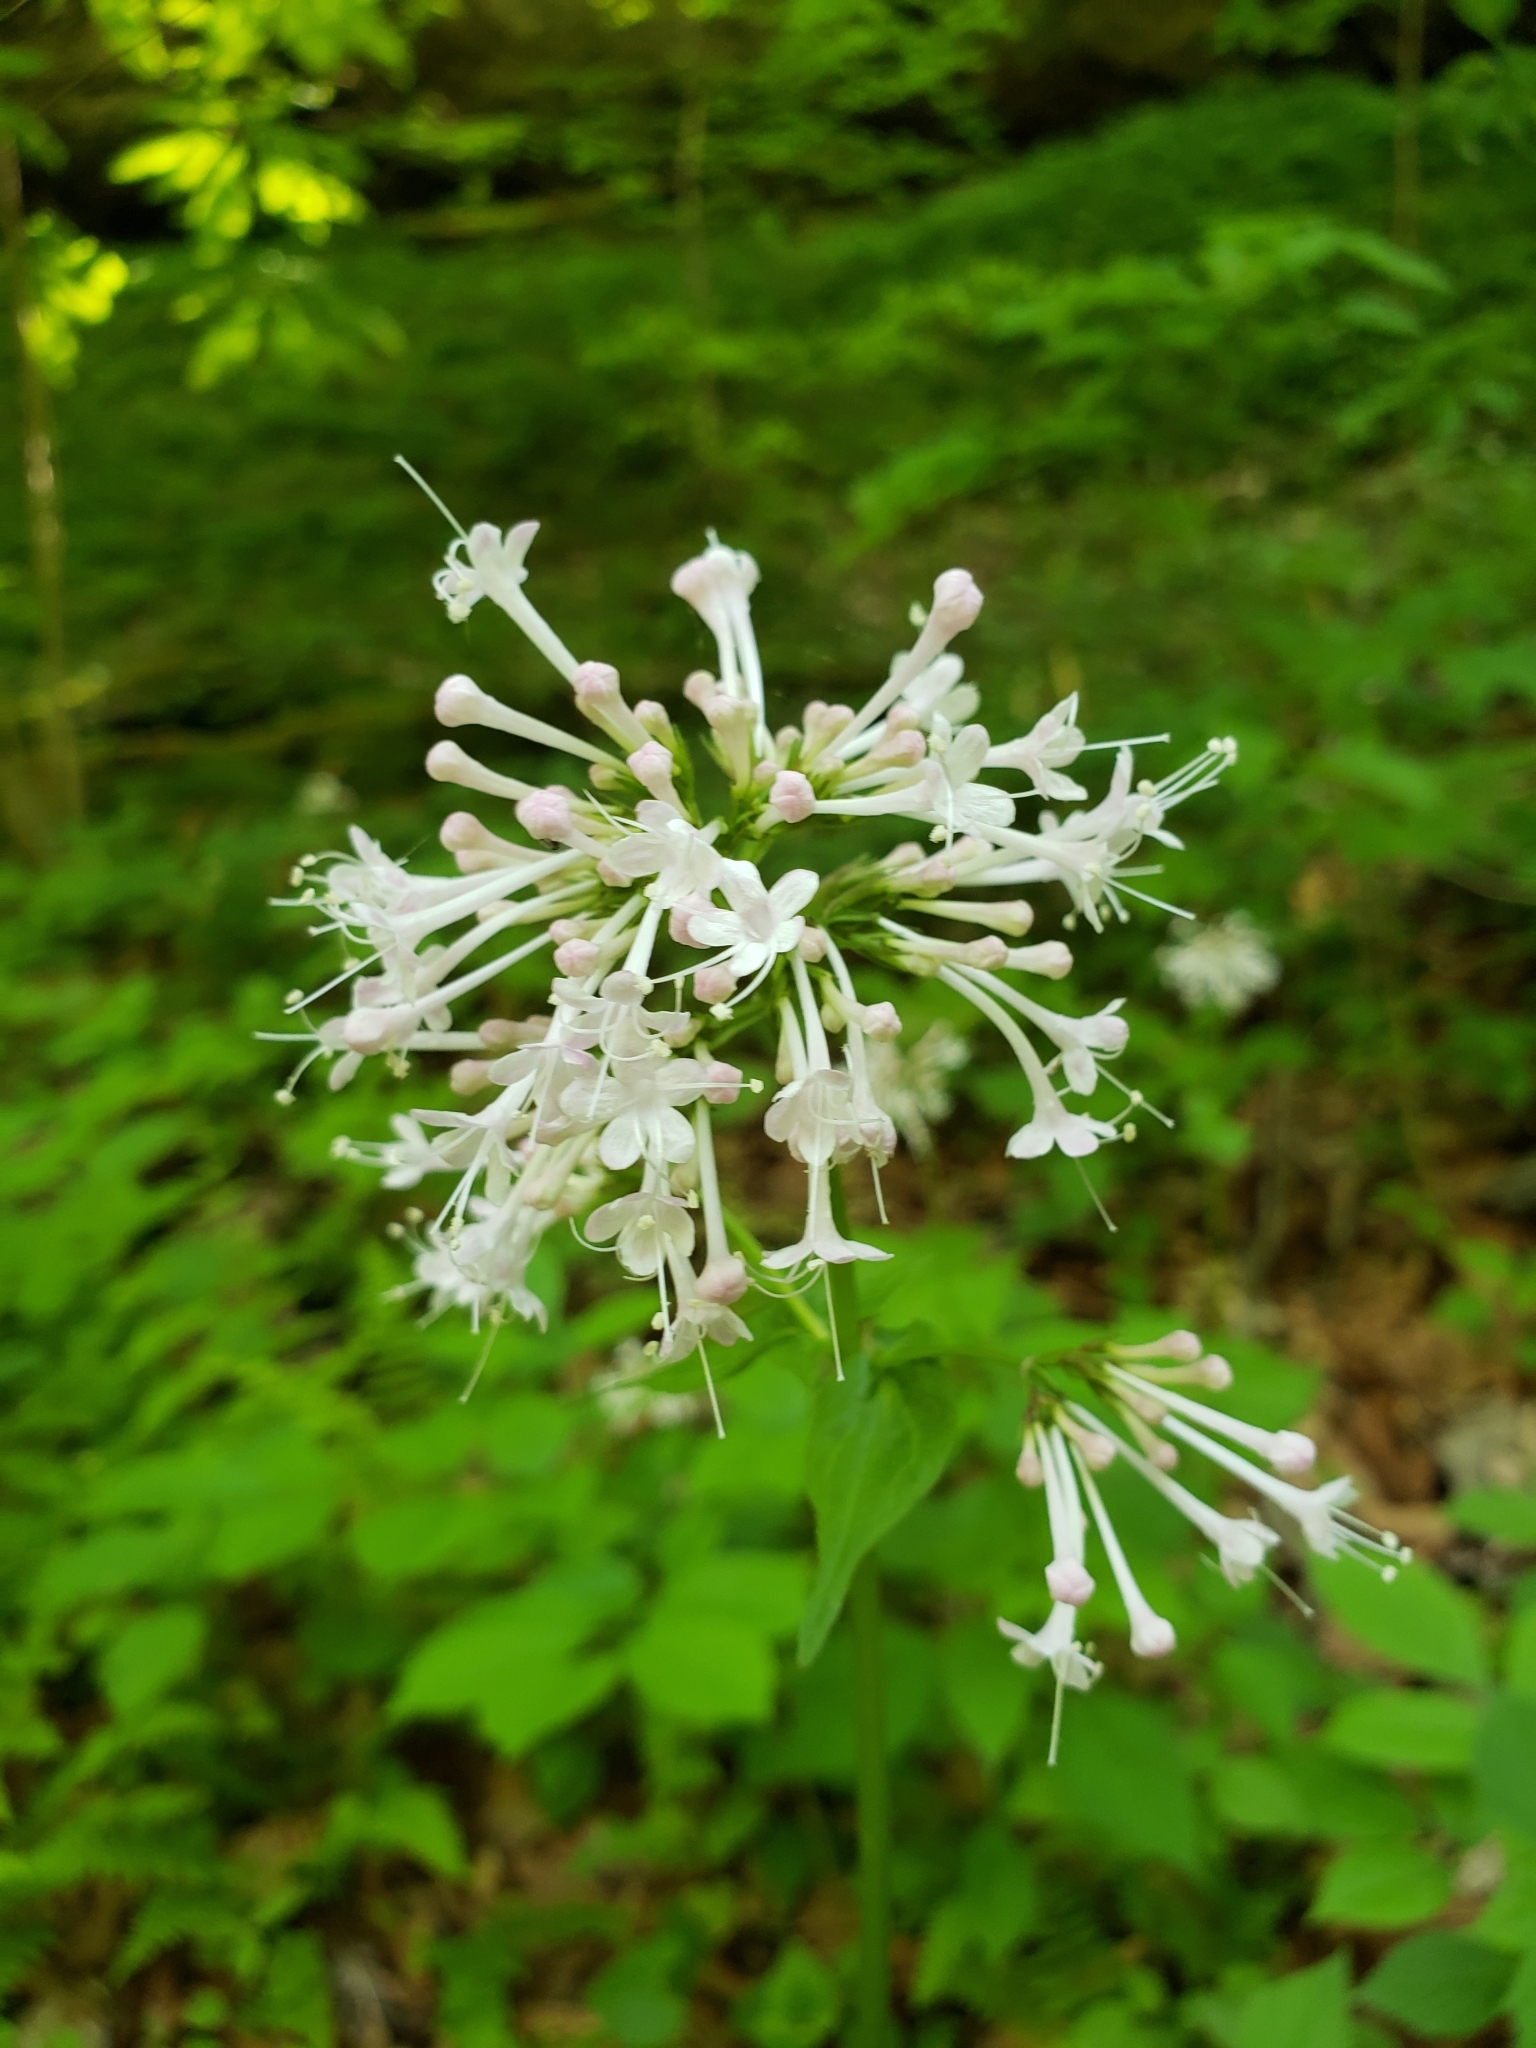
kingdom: Plantae
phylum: Tracheophyta
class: Magnoliopsida
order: Dipsacales
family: Caprifoliaceae
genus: Valeriana
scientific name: Valeriana pauciflora
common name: Long-tube valeriana
